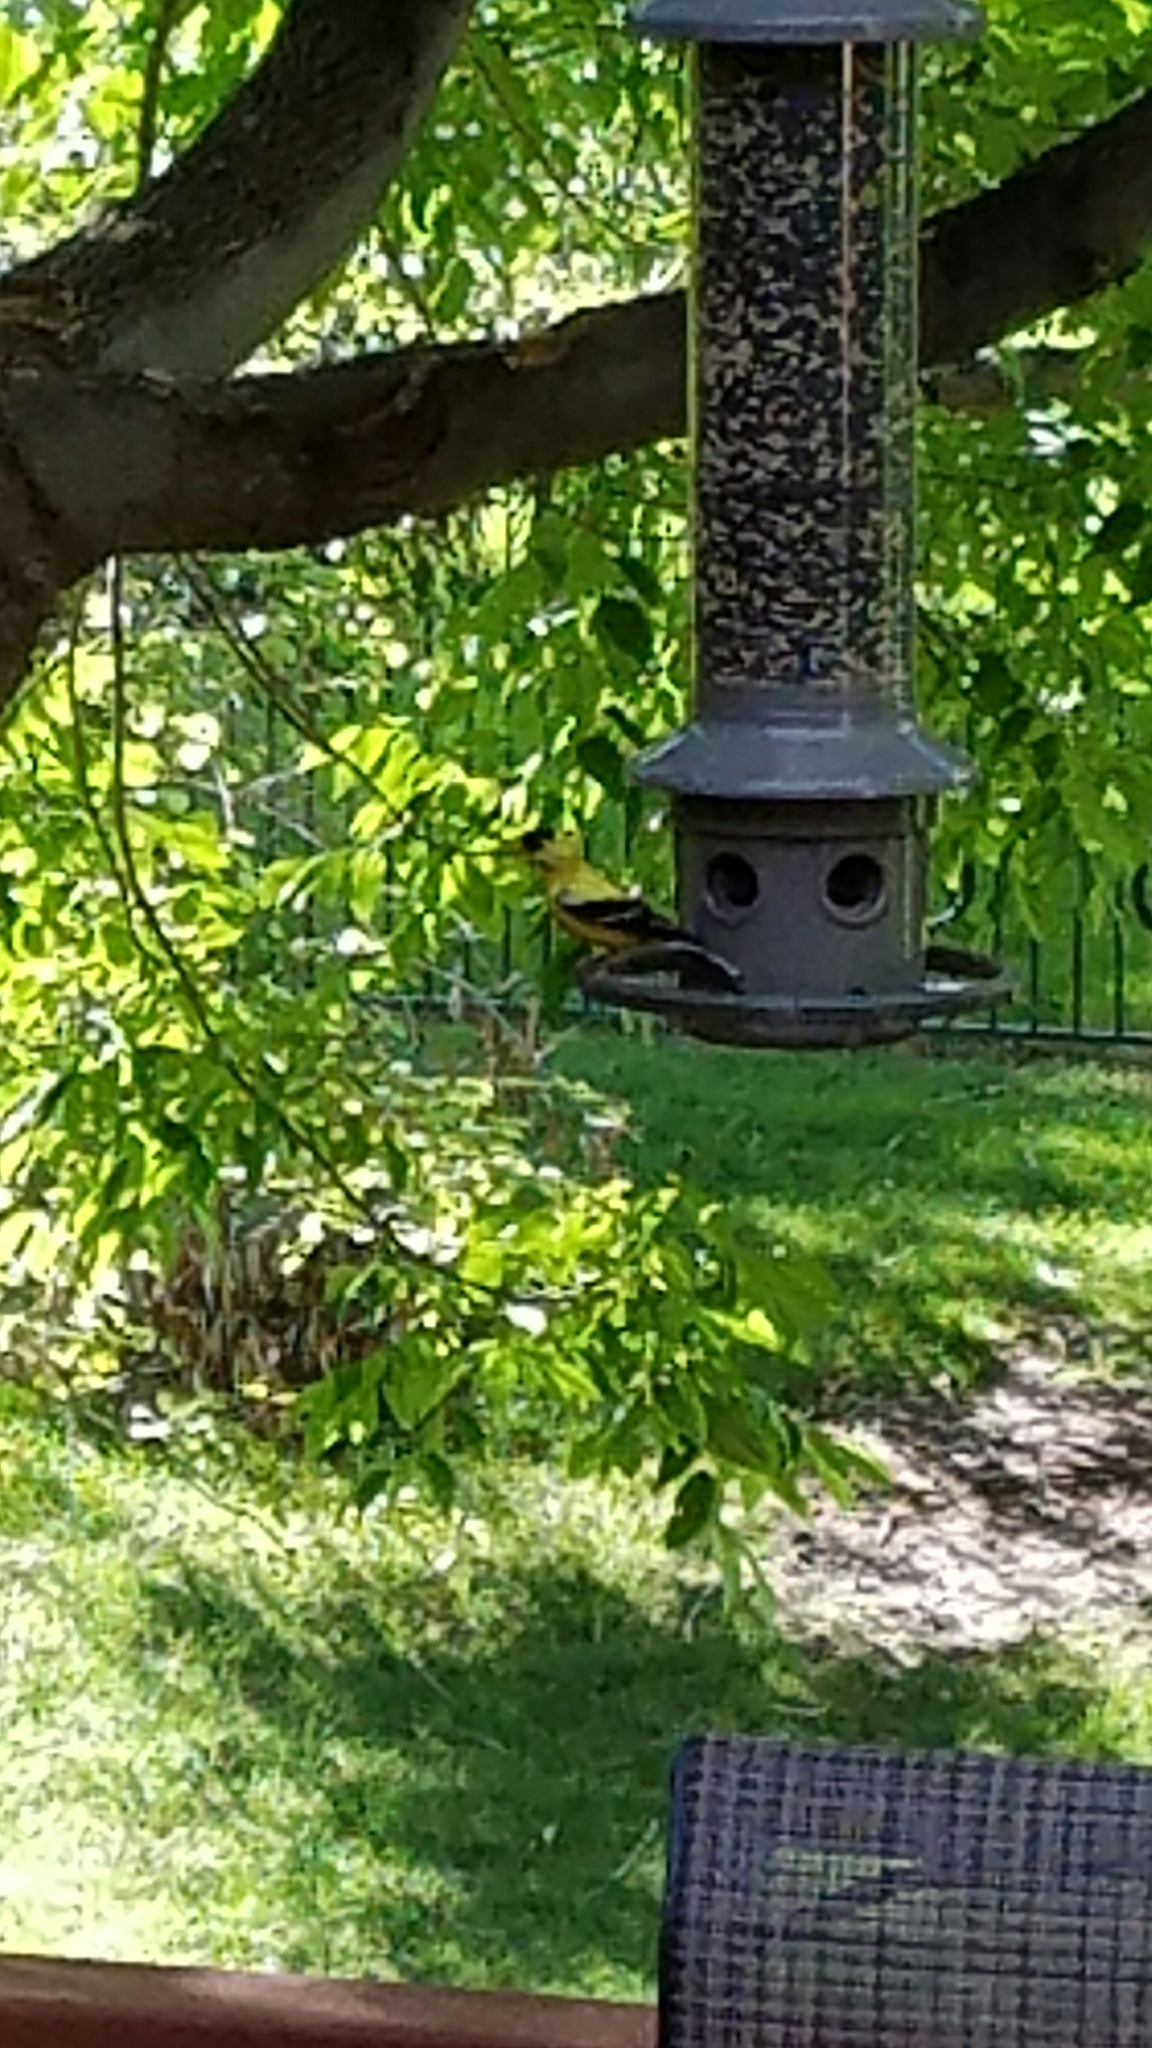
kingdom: Animalia
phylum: Chordata
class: Aves
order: Passeriformes
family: Fringillidae
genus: Spinus
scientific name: Spinus tristis
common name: American goldfinch
